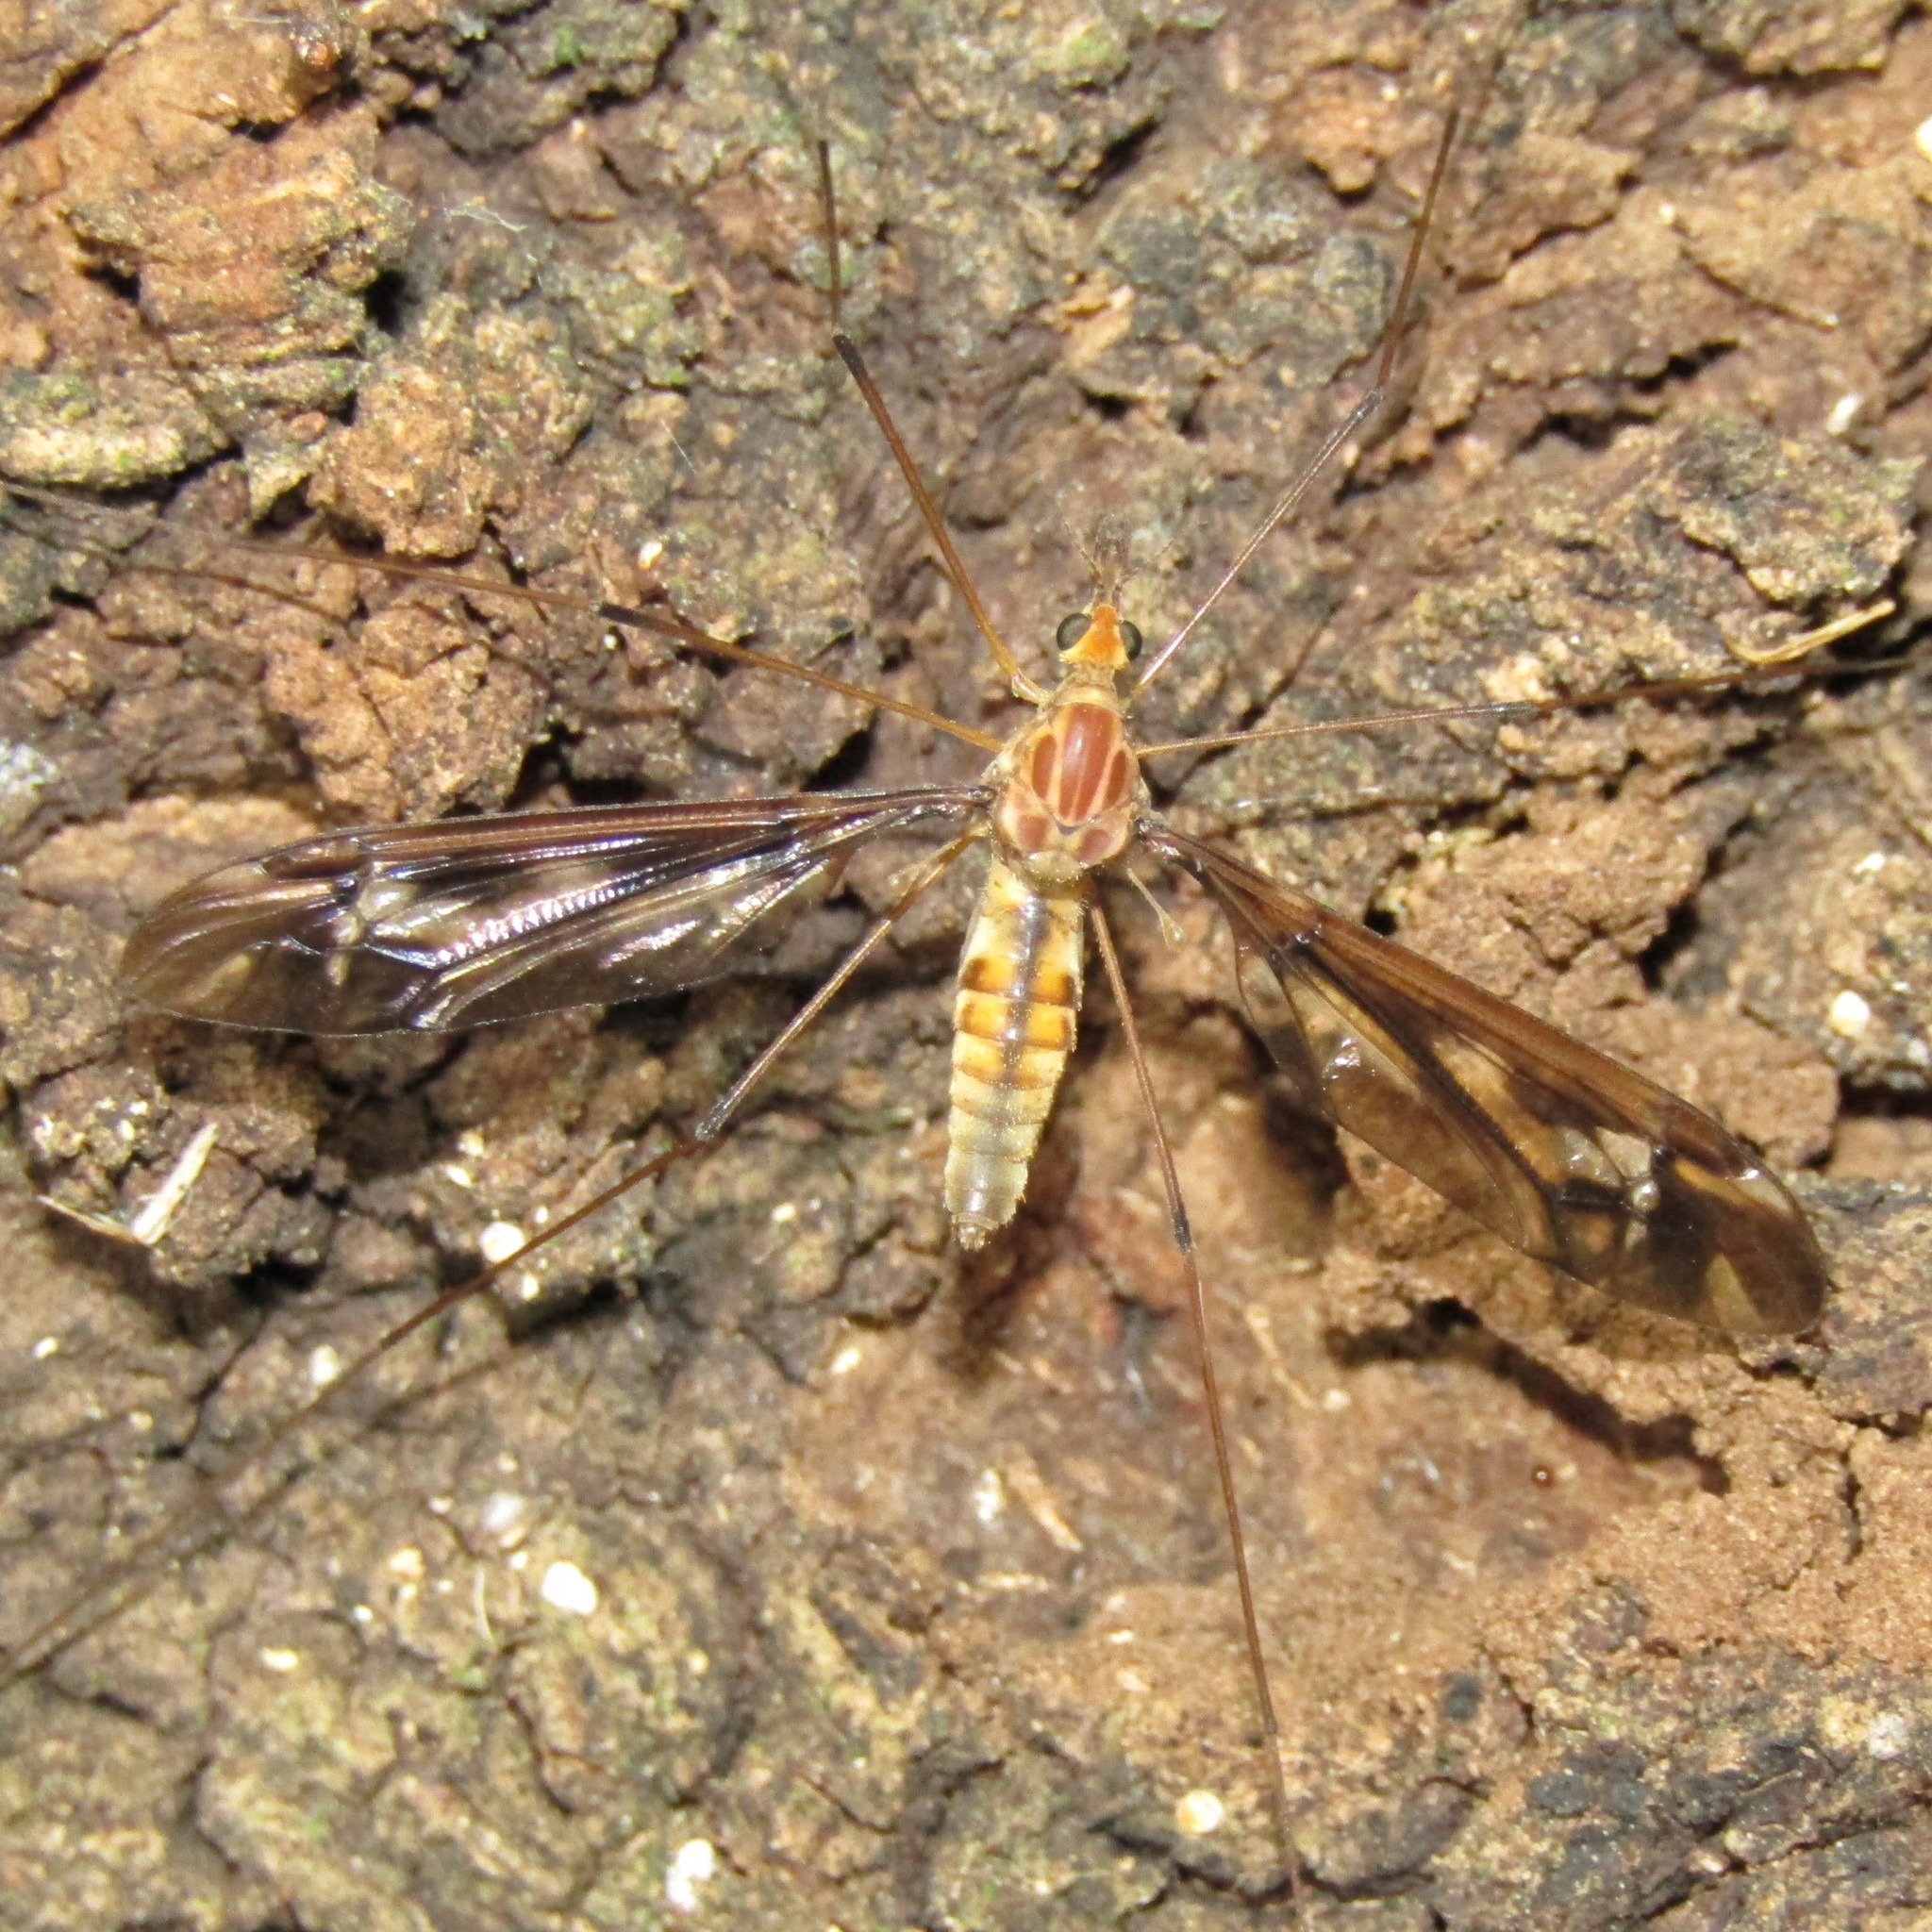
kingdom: Animalia
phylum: Arthropoda
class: Insecta
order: Diptera
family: Tipulidae
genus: Leptotarsus
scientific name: Leptotarsus huttoni
